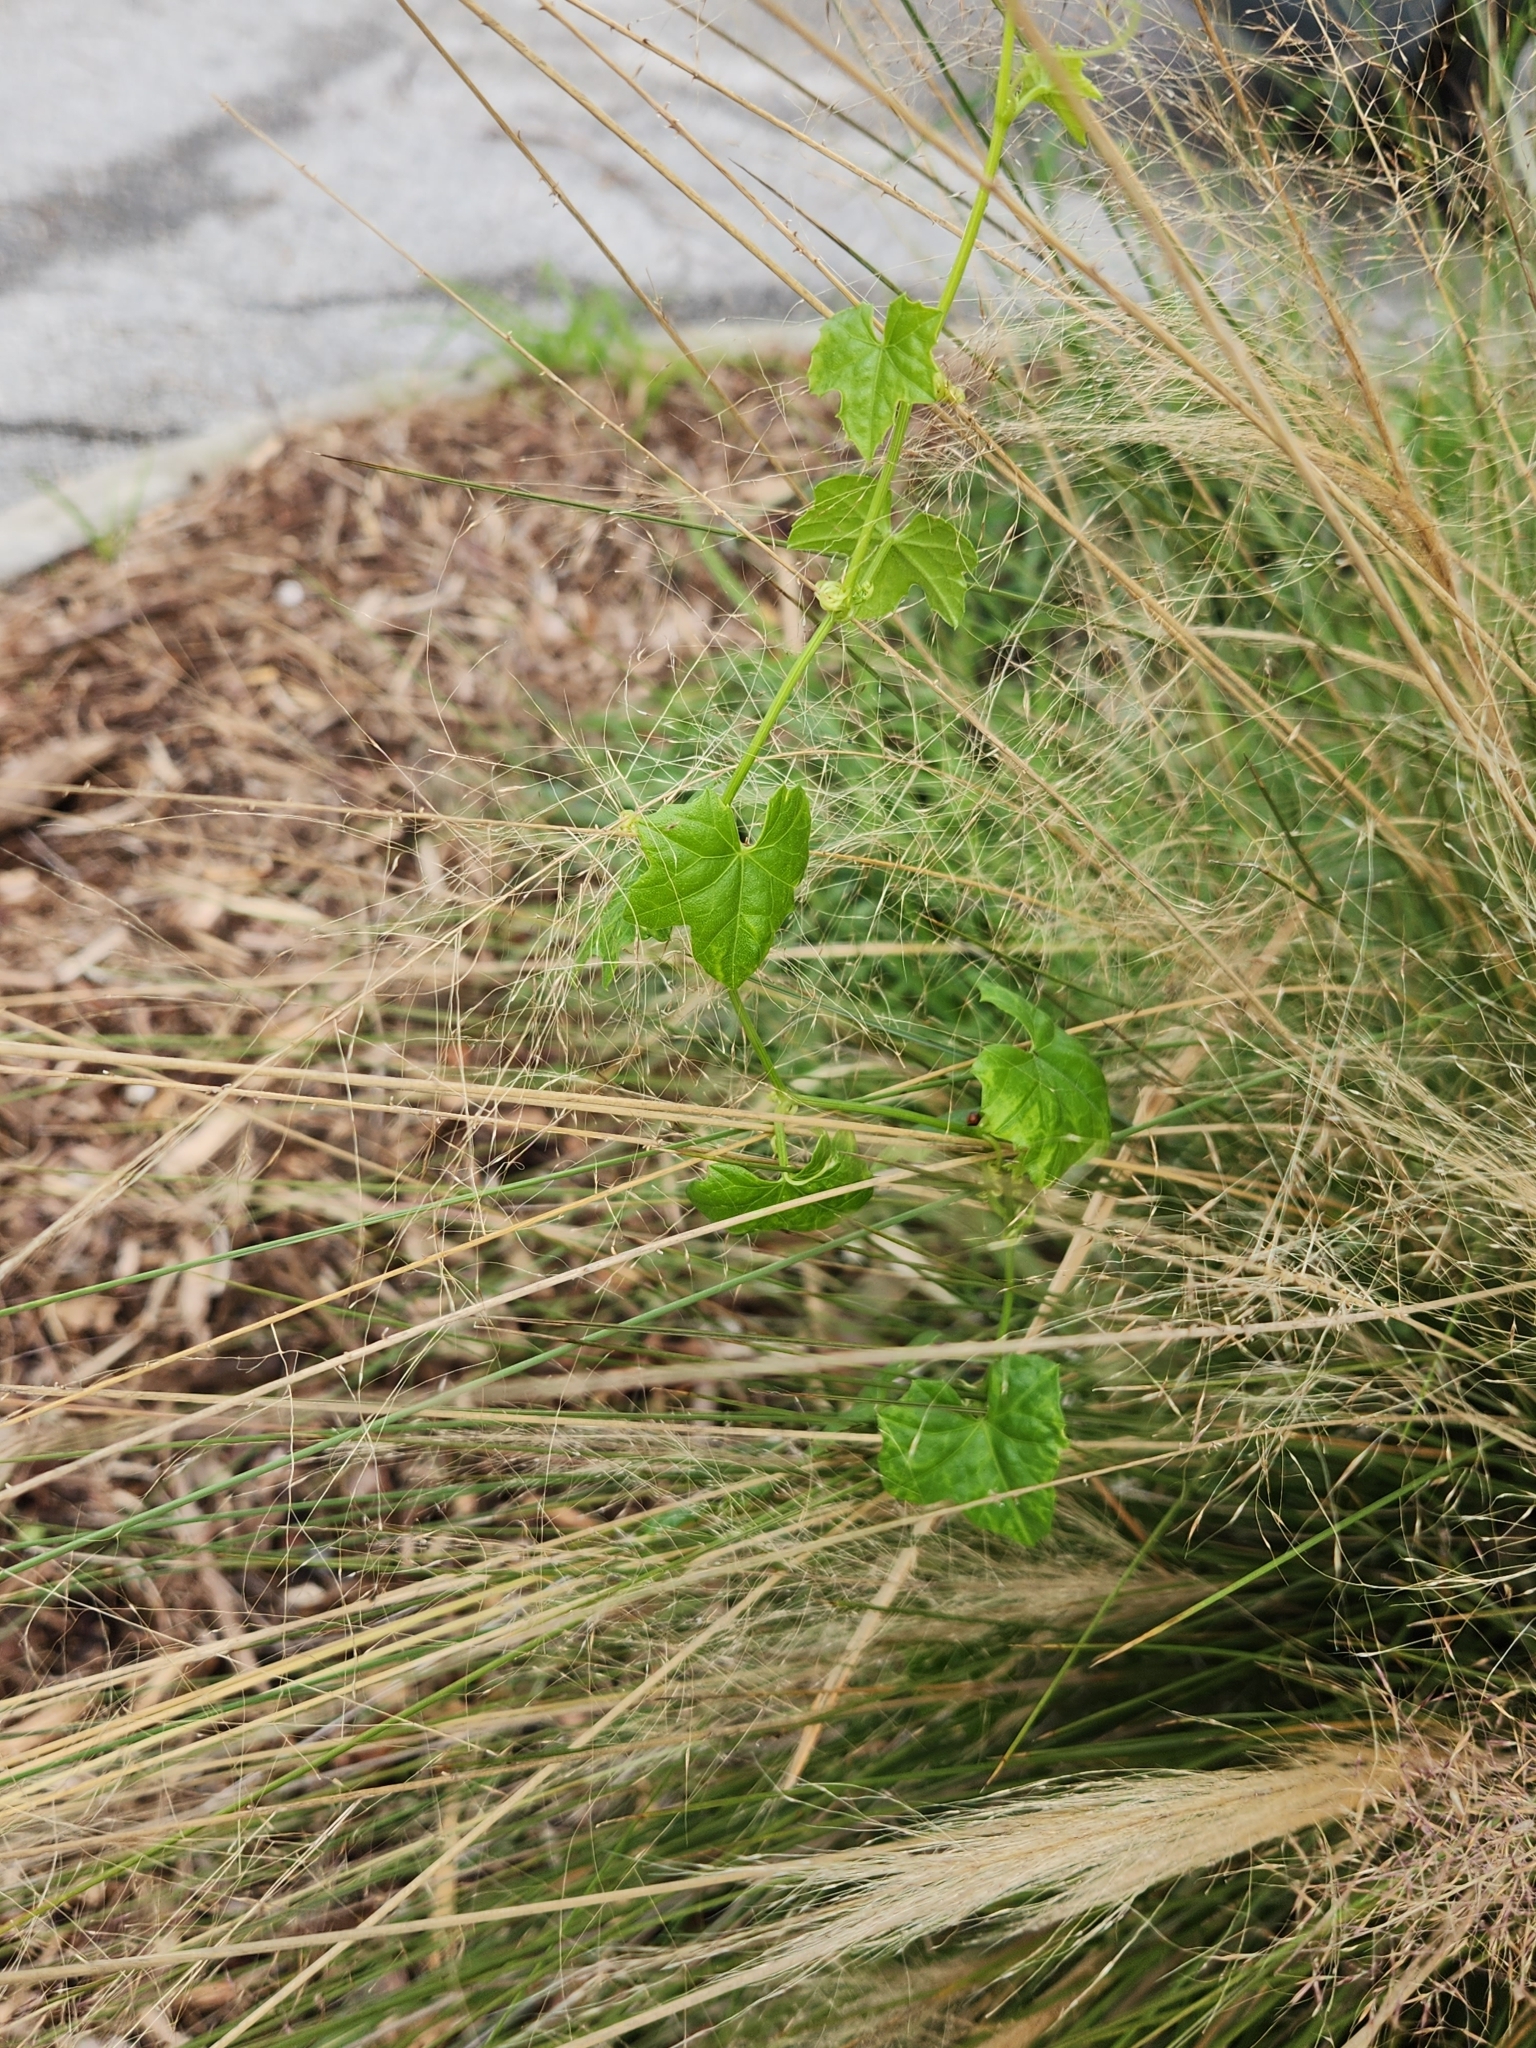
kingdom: Plantae
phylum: Tracheophyta
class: Magnoliopsida
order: Cucurbitales
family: Cucurbitaceae
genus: Melothria
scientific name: Melothria pendula
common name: Creeping-cucumber
